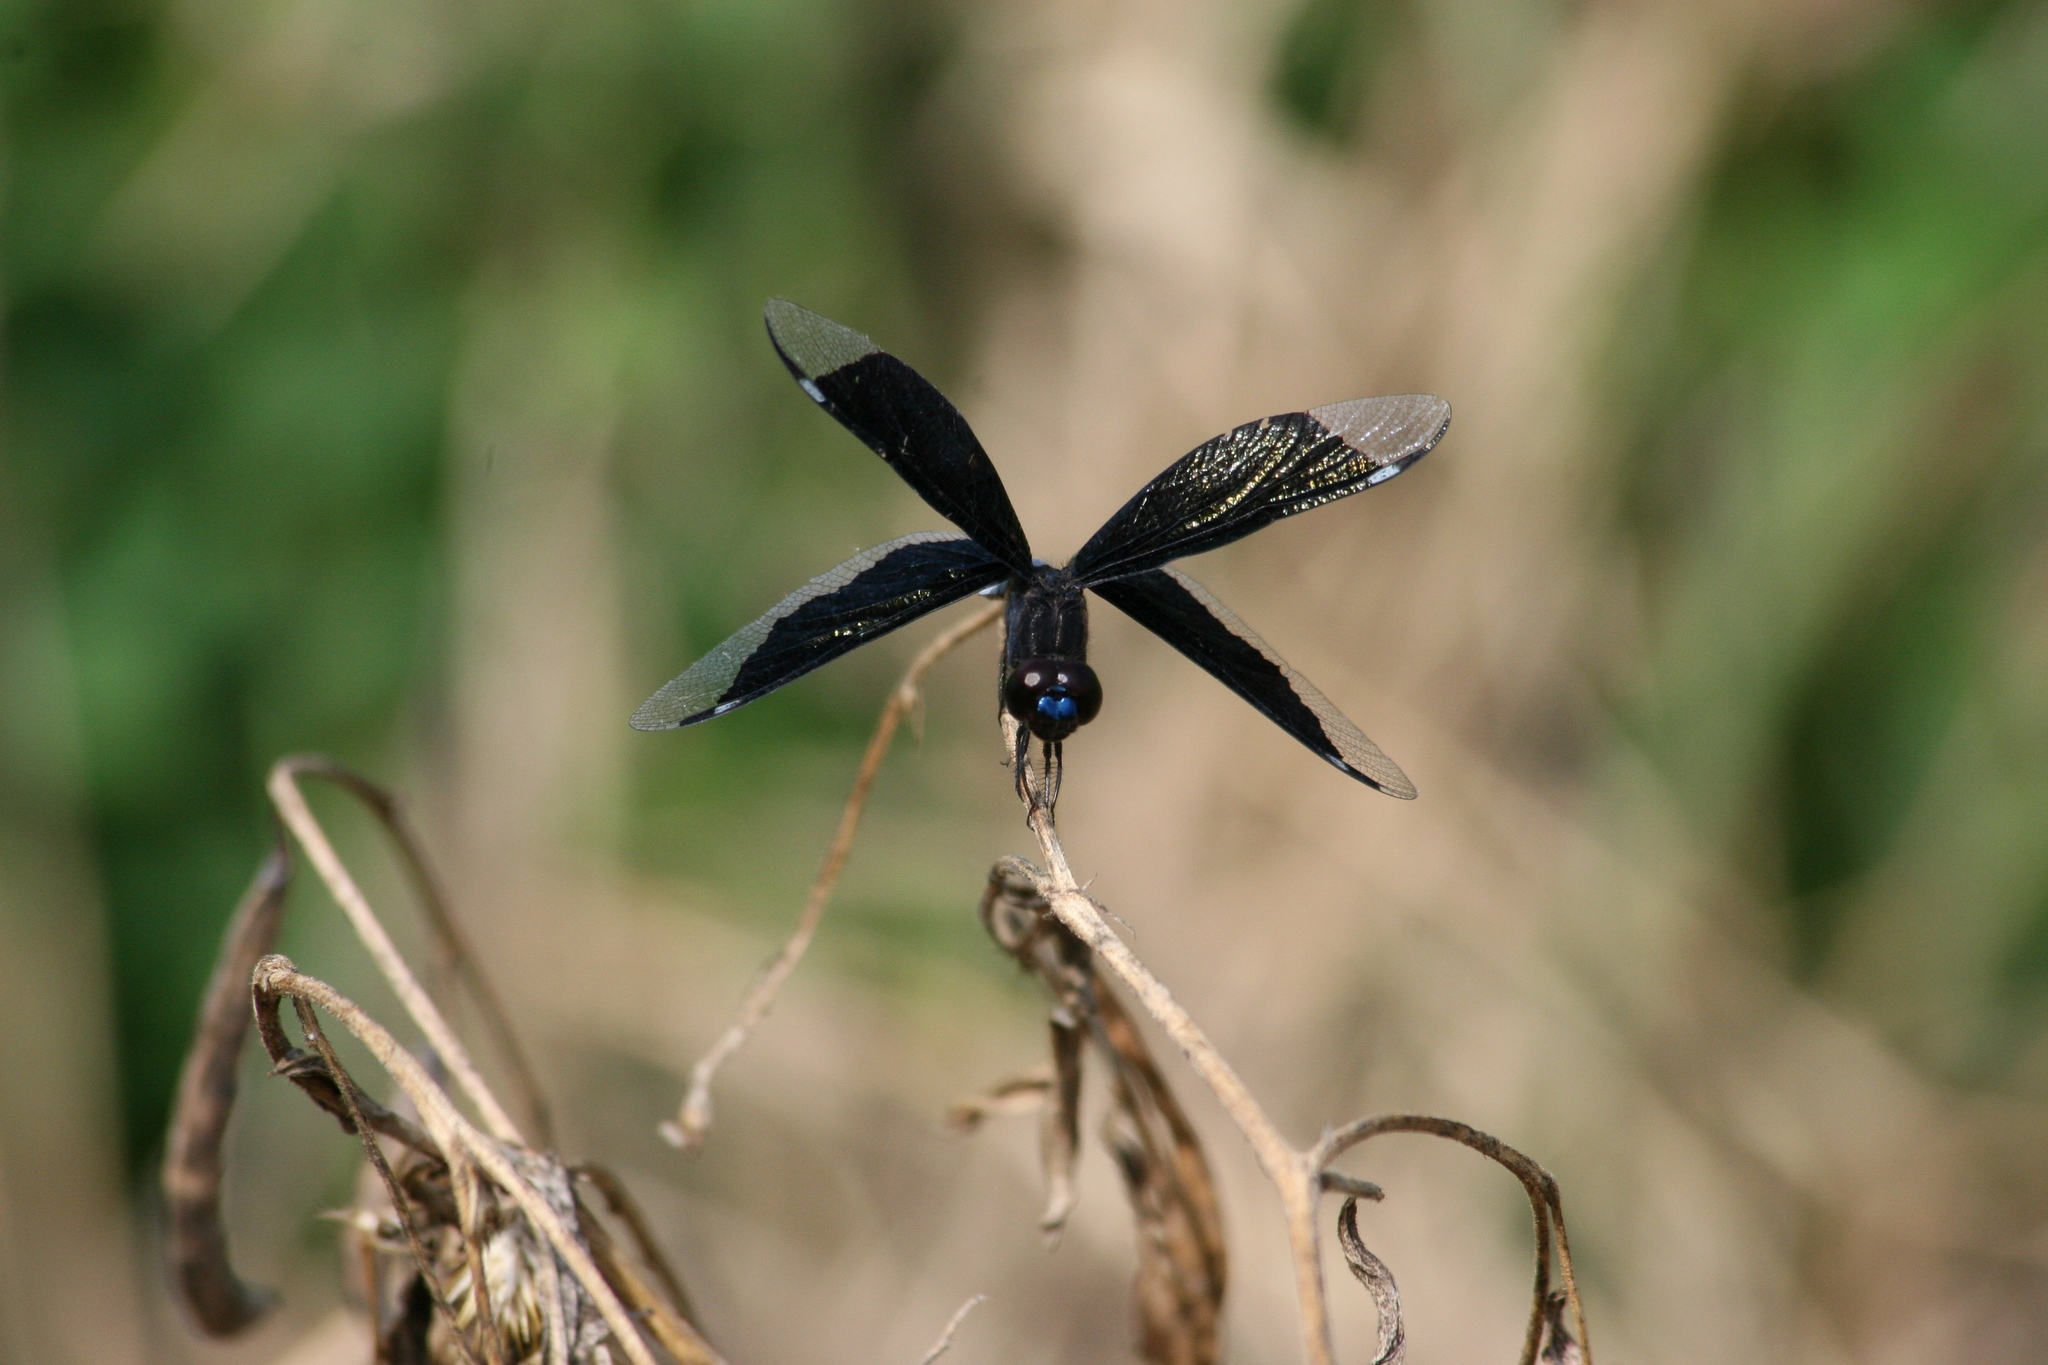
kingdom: Animalia
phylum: Arthropoda
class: Insecta
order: Odonata
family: Libellulidae
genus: Palpopleura
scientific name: Palpopleura lucia
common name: Lucia widow
